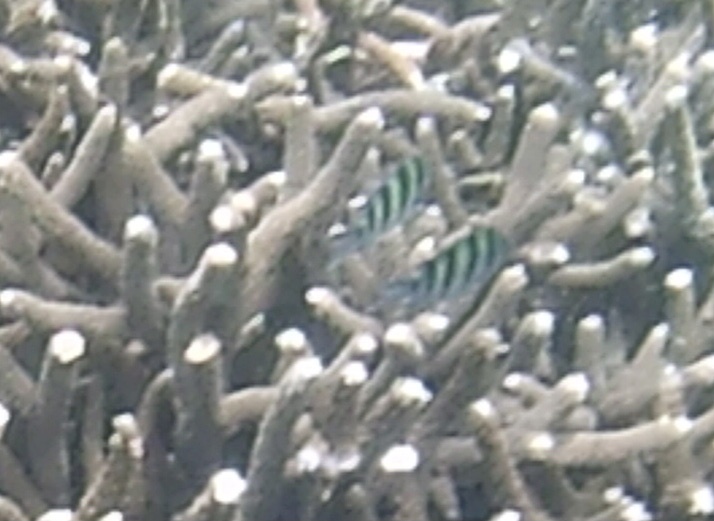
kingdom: Animalia
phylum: Chordata
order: Perciformes
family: Pomacentridae
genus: Abudefduf
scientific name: Abudefduf vaigiensis
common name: Indo-pacific sergeant
